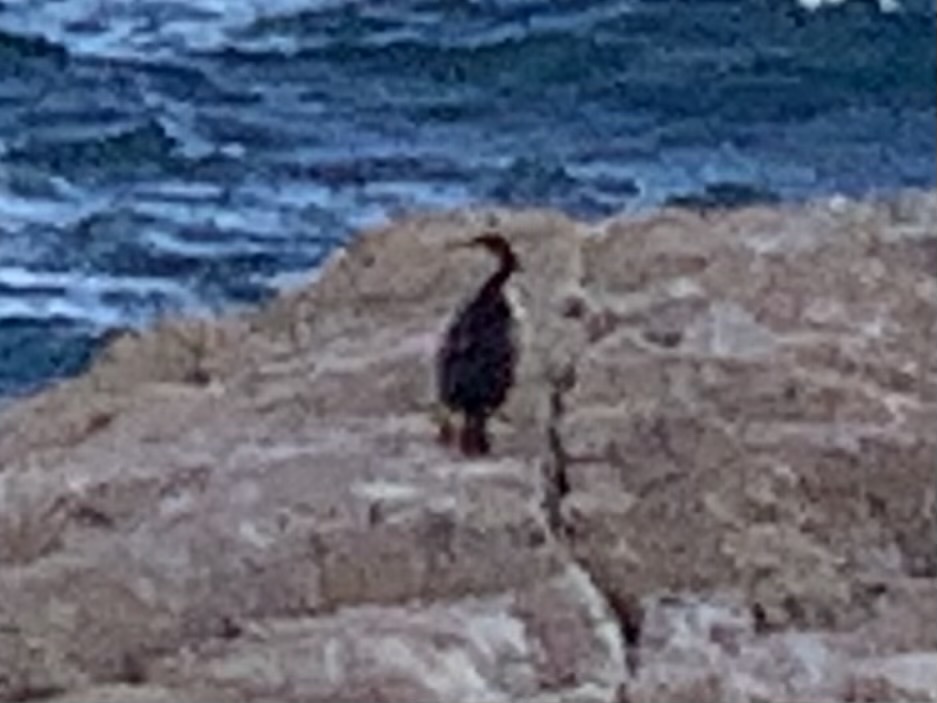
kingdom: Animalia
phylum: Chordata
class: Aves
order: Suliformes
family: Phalacrocoracidae
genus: Phalacrocorax
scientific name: Phalacrocorax aristotelis
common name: European shag
